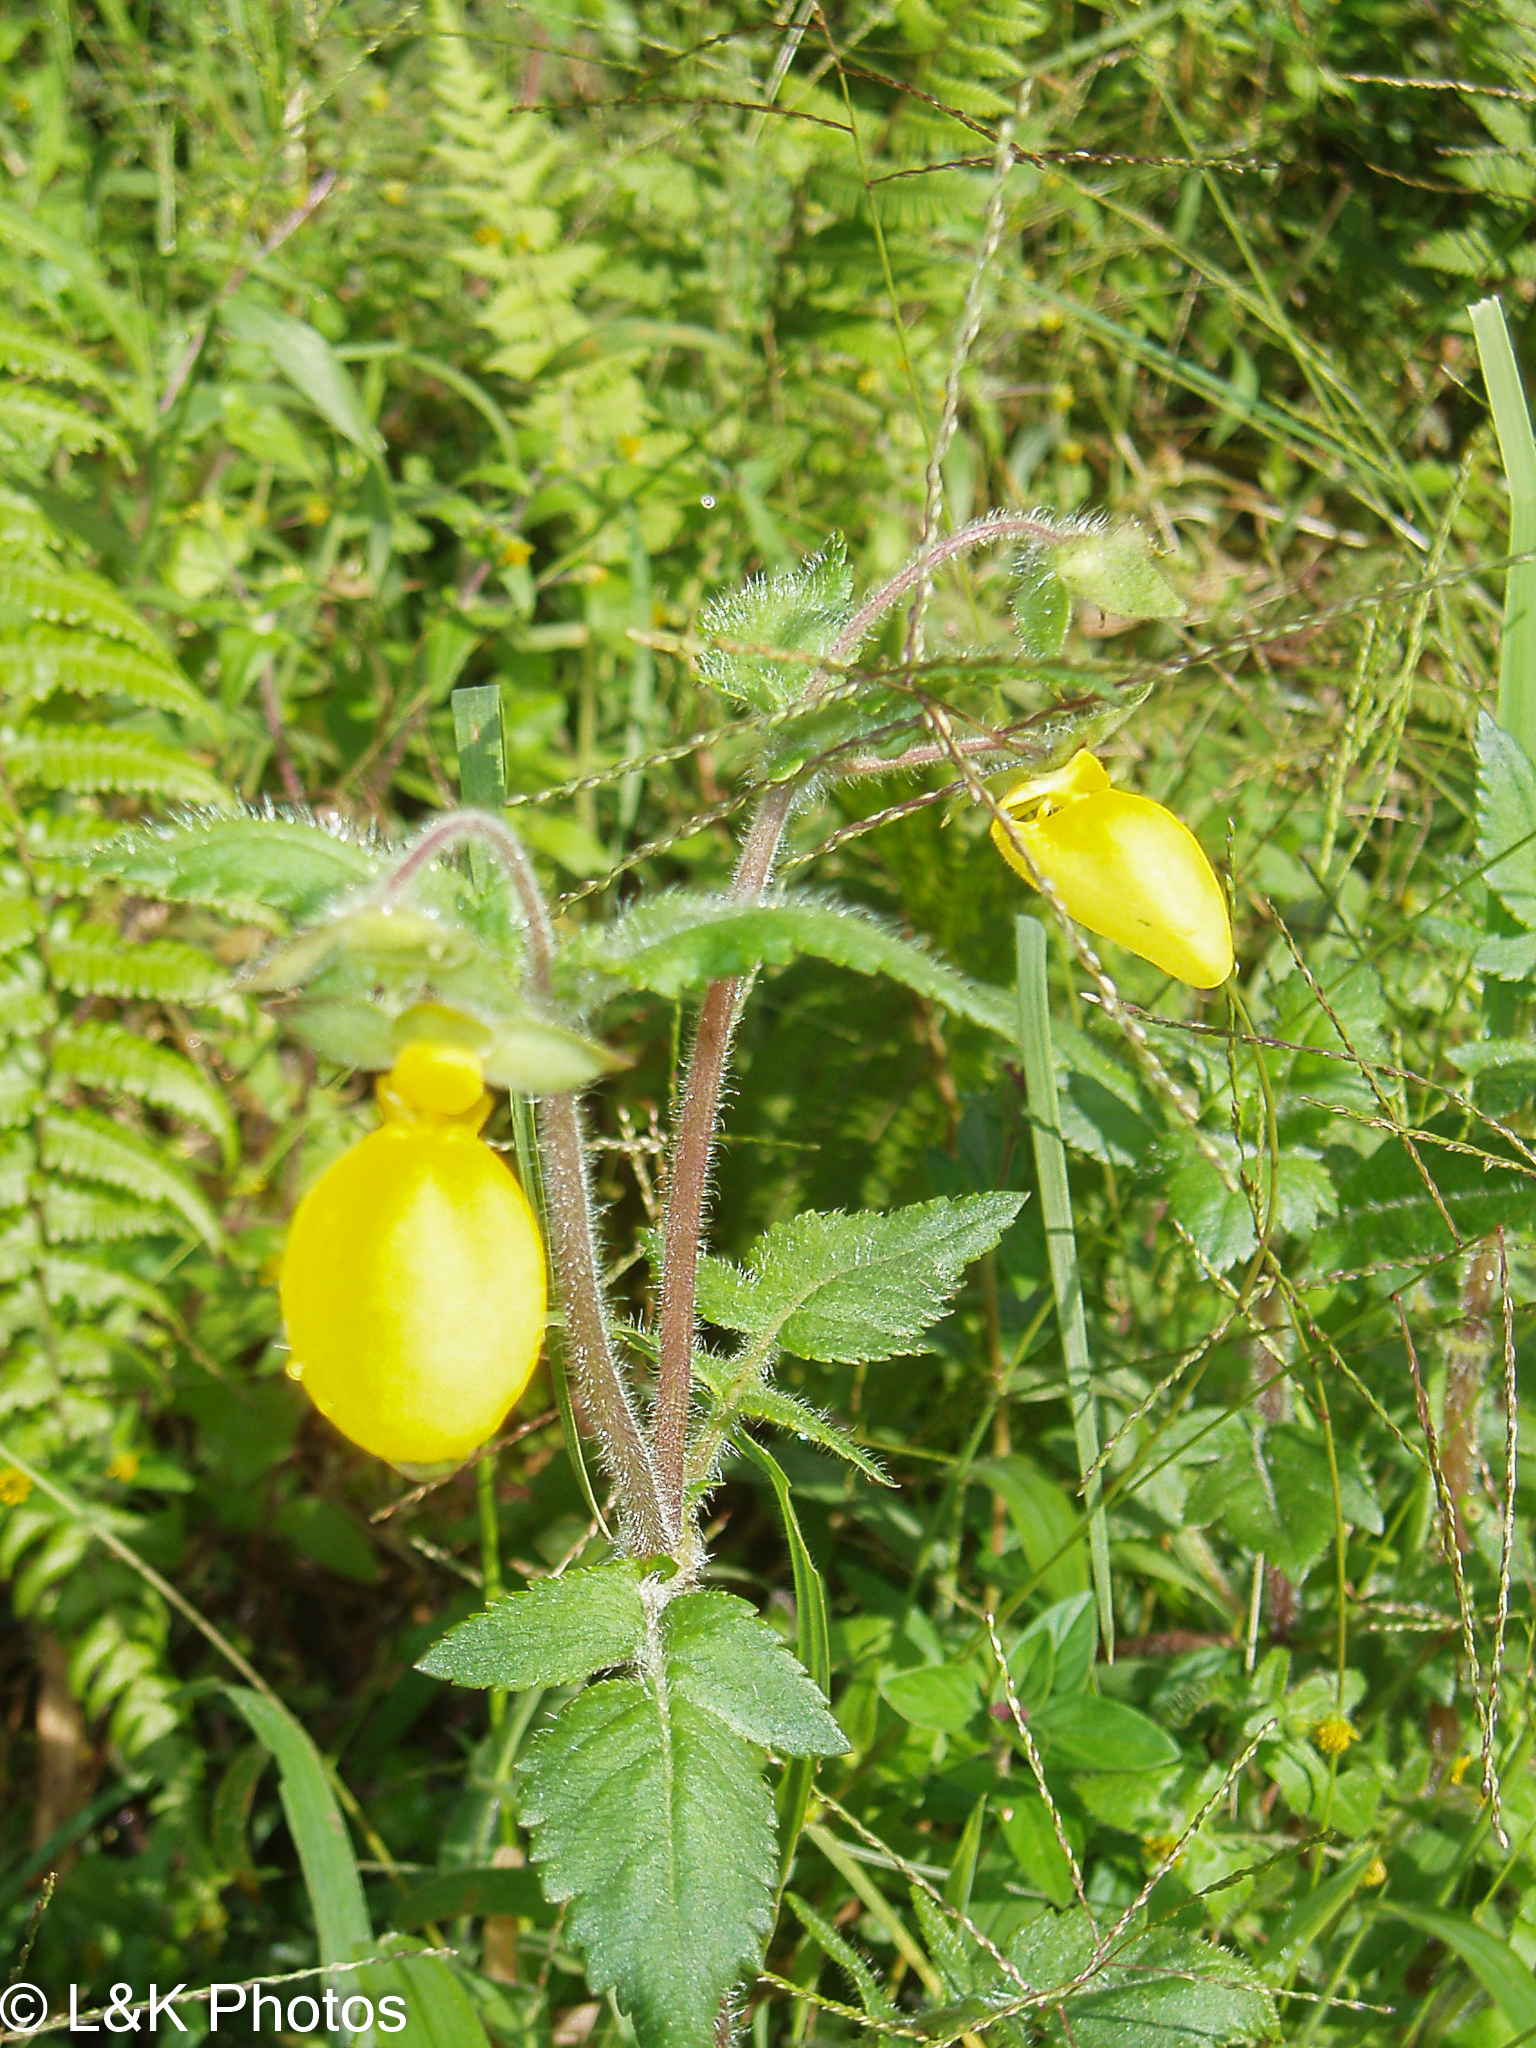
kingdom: Plantae
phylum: Tracheophyta
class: Magnoliopsida
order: Lamiales
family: Calceolariaceae
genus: Calceolaria
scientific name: Calceolaria tripartita
